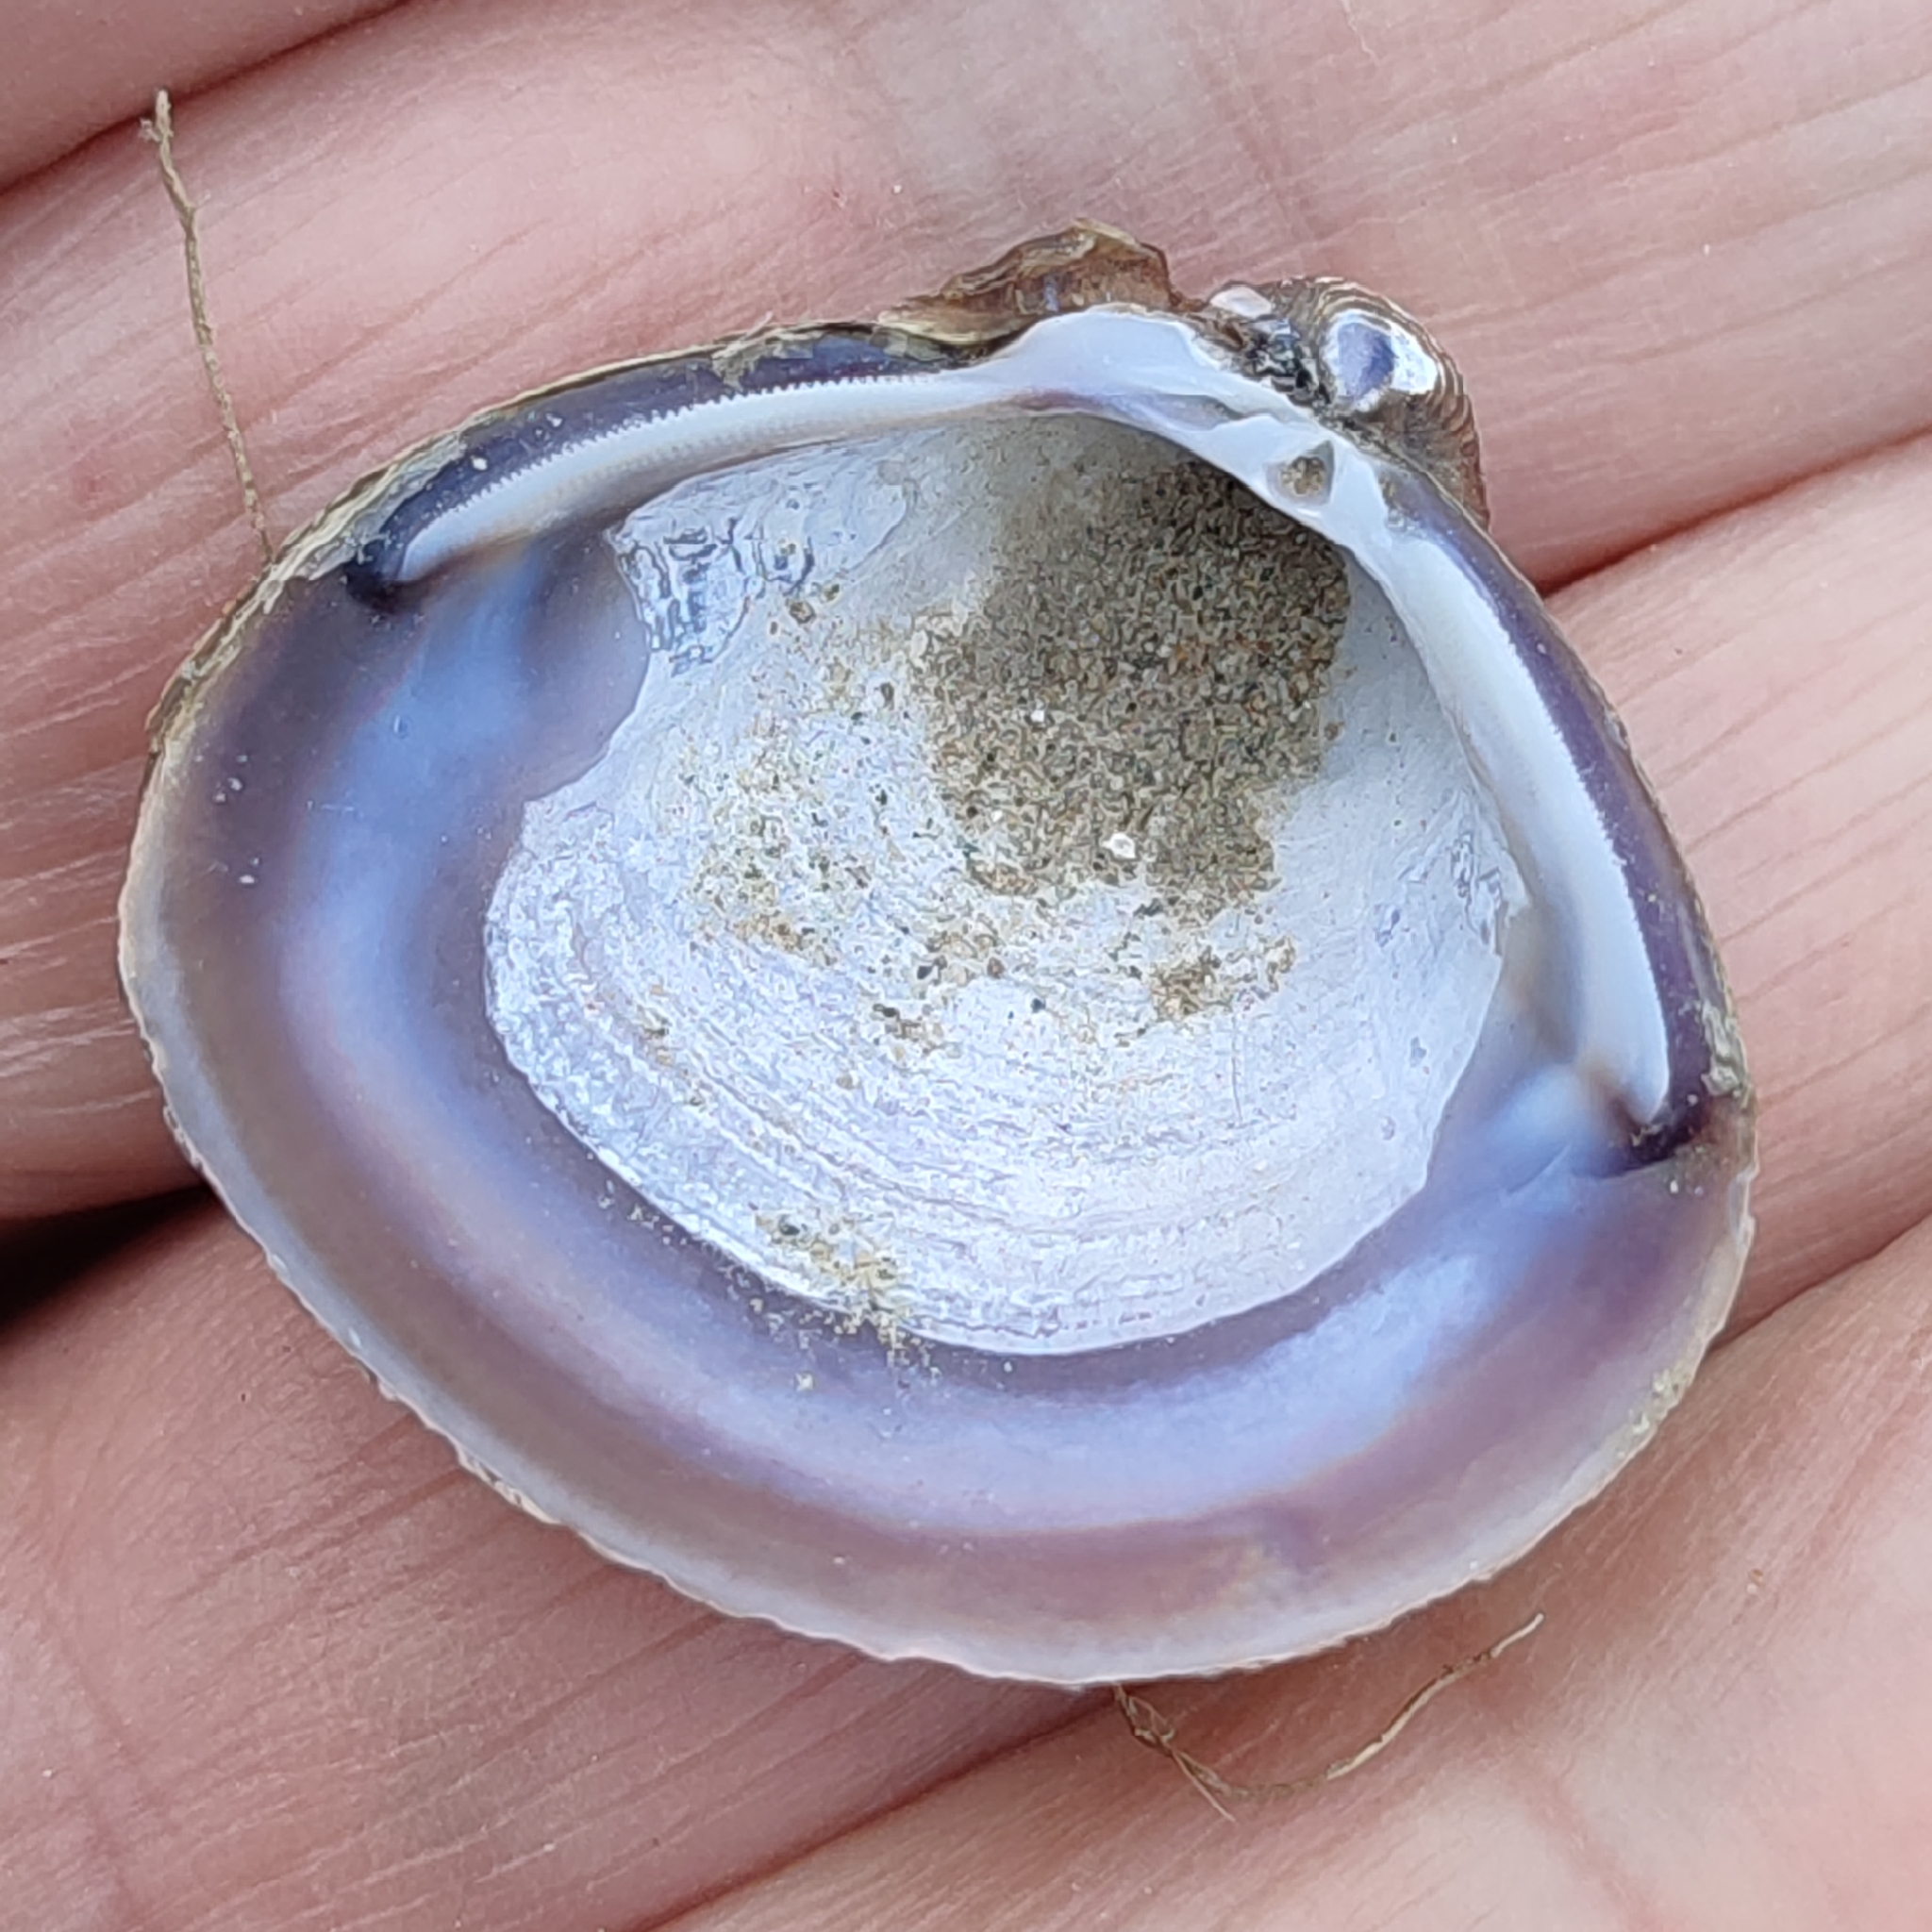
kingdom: Animalia
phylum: Mollusca
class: Bivalvia
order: Venerida
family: Cyrenidae
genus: Corbicula
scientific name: Corbicula fluminea
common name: Asian clam
